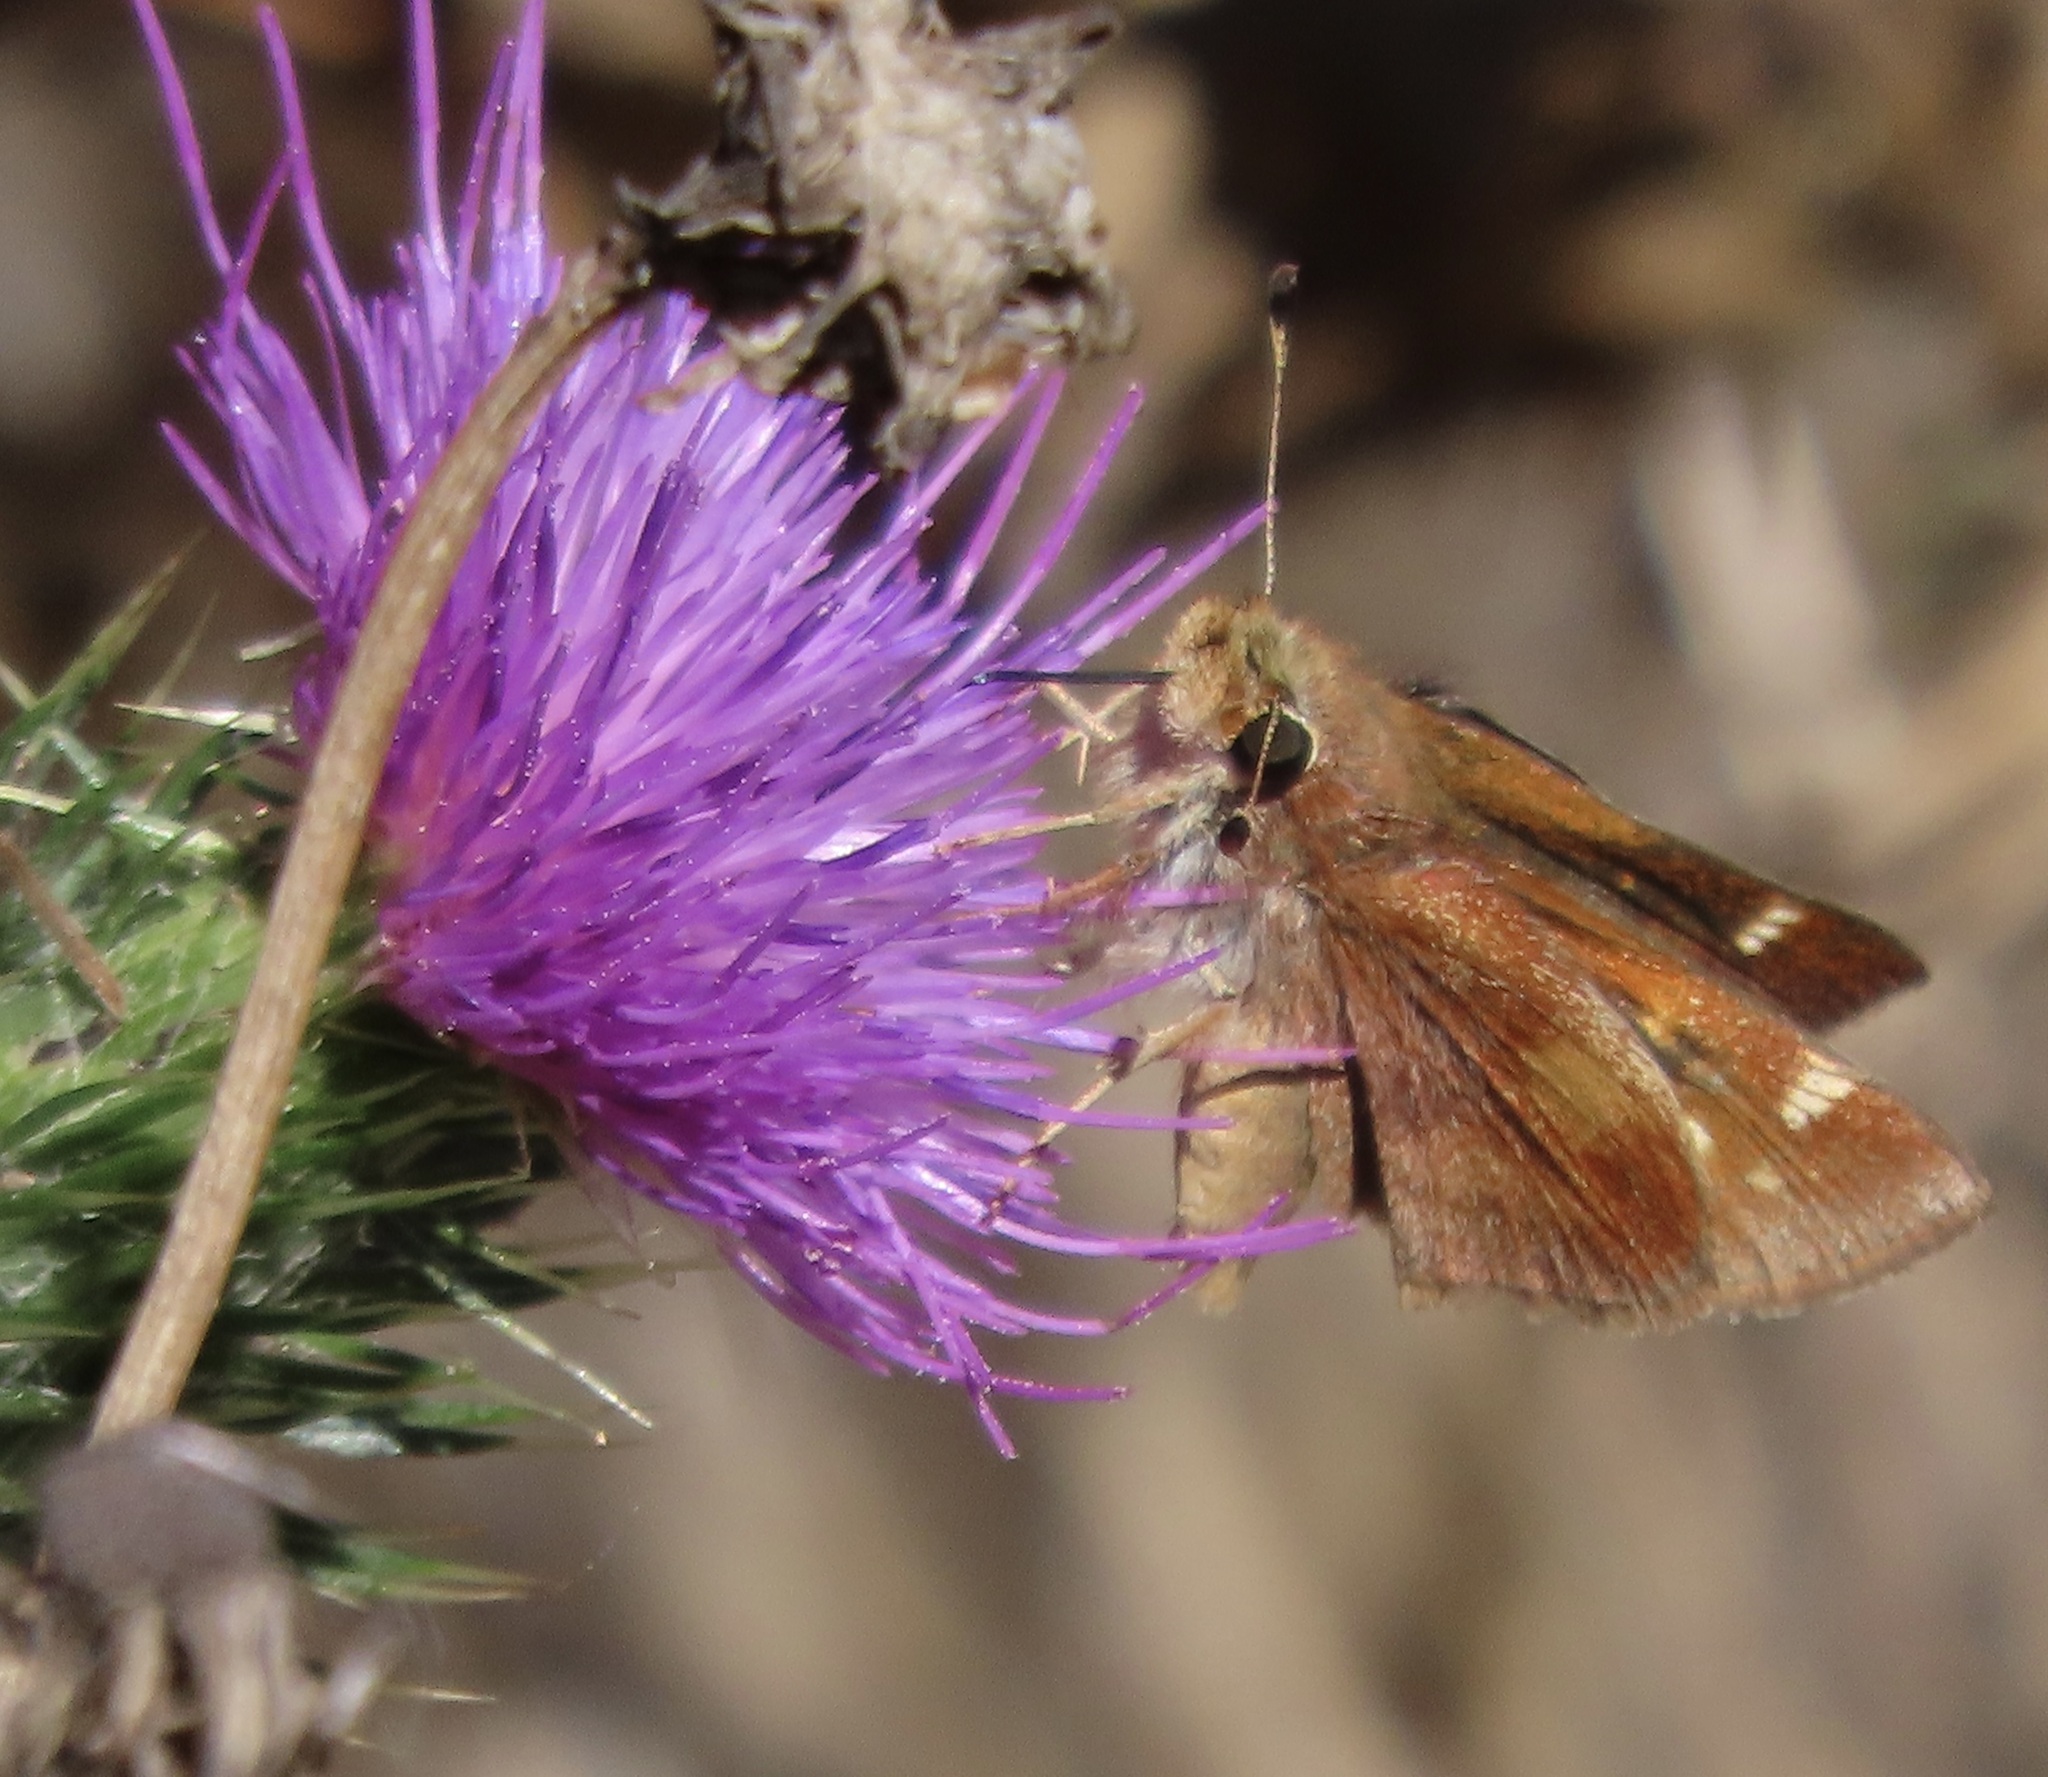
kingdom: Animalia
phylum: Arthropoda
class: Insecta
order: Lepidoptera
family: Hesperiidae
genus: Lon
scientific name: Lon melane
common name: Umber skipper
